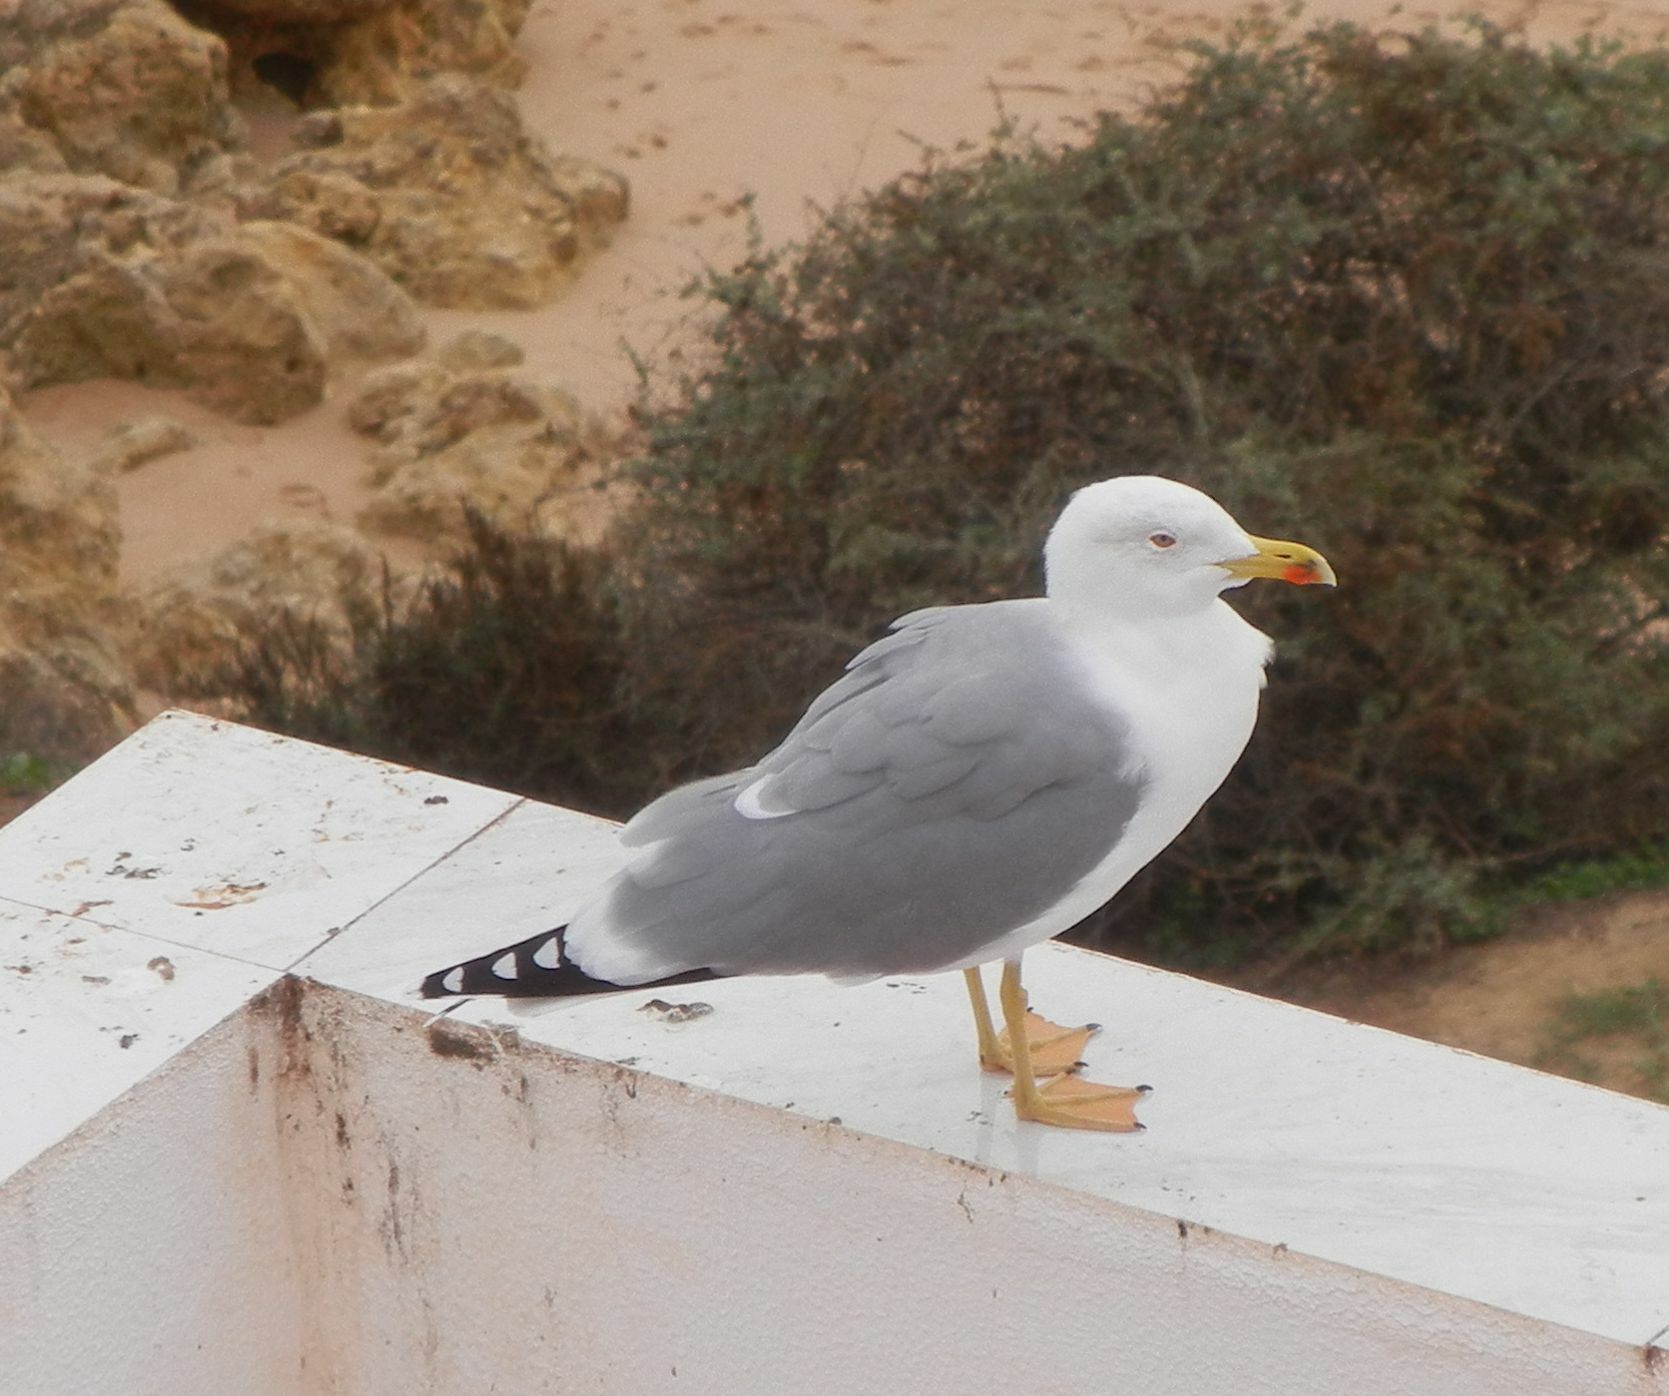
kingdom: Animalia
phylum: Chordata
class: Aves
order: Charadriiformes
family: Laridae
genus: Larus
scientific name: Larus michahellis
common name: Yellow-legged gull
